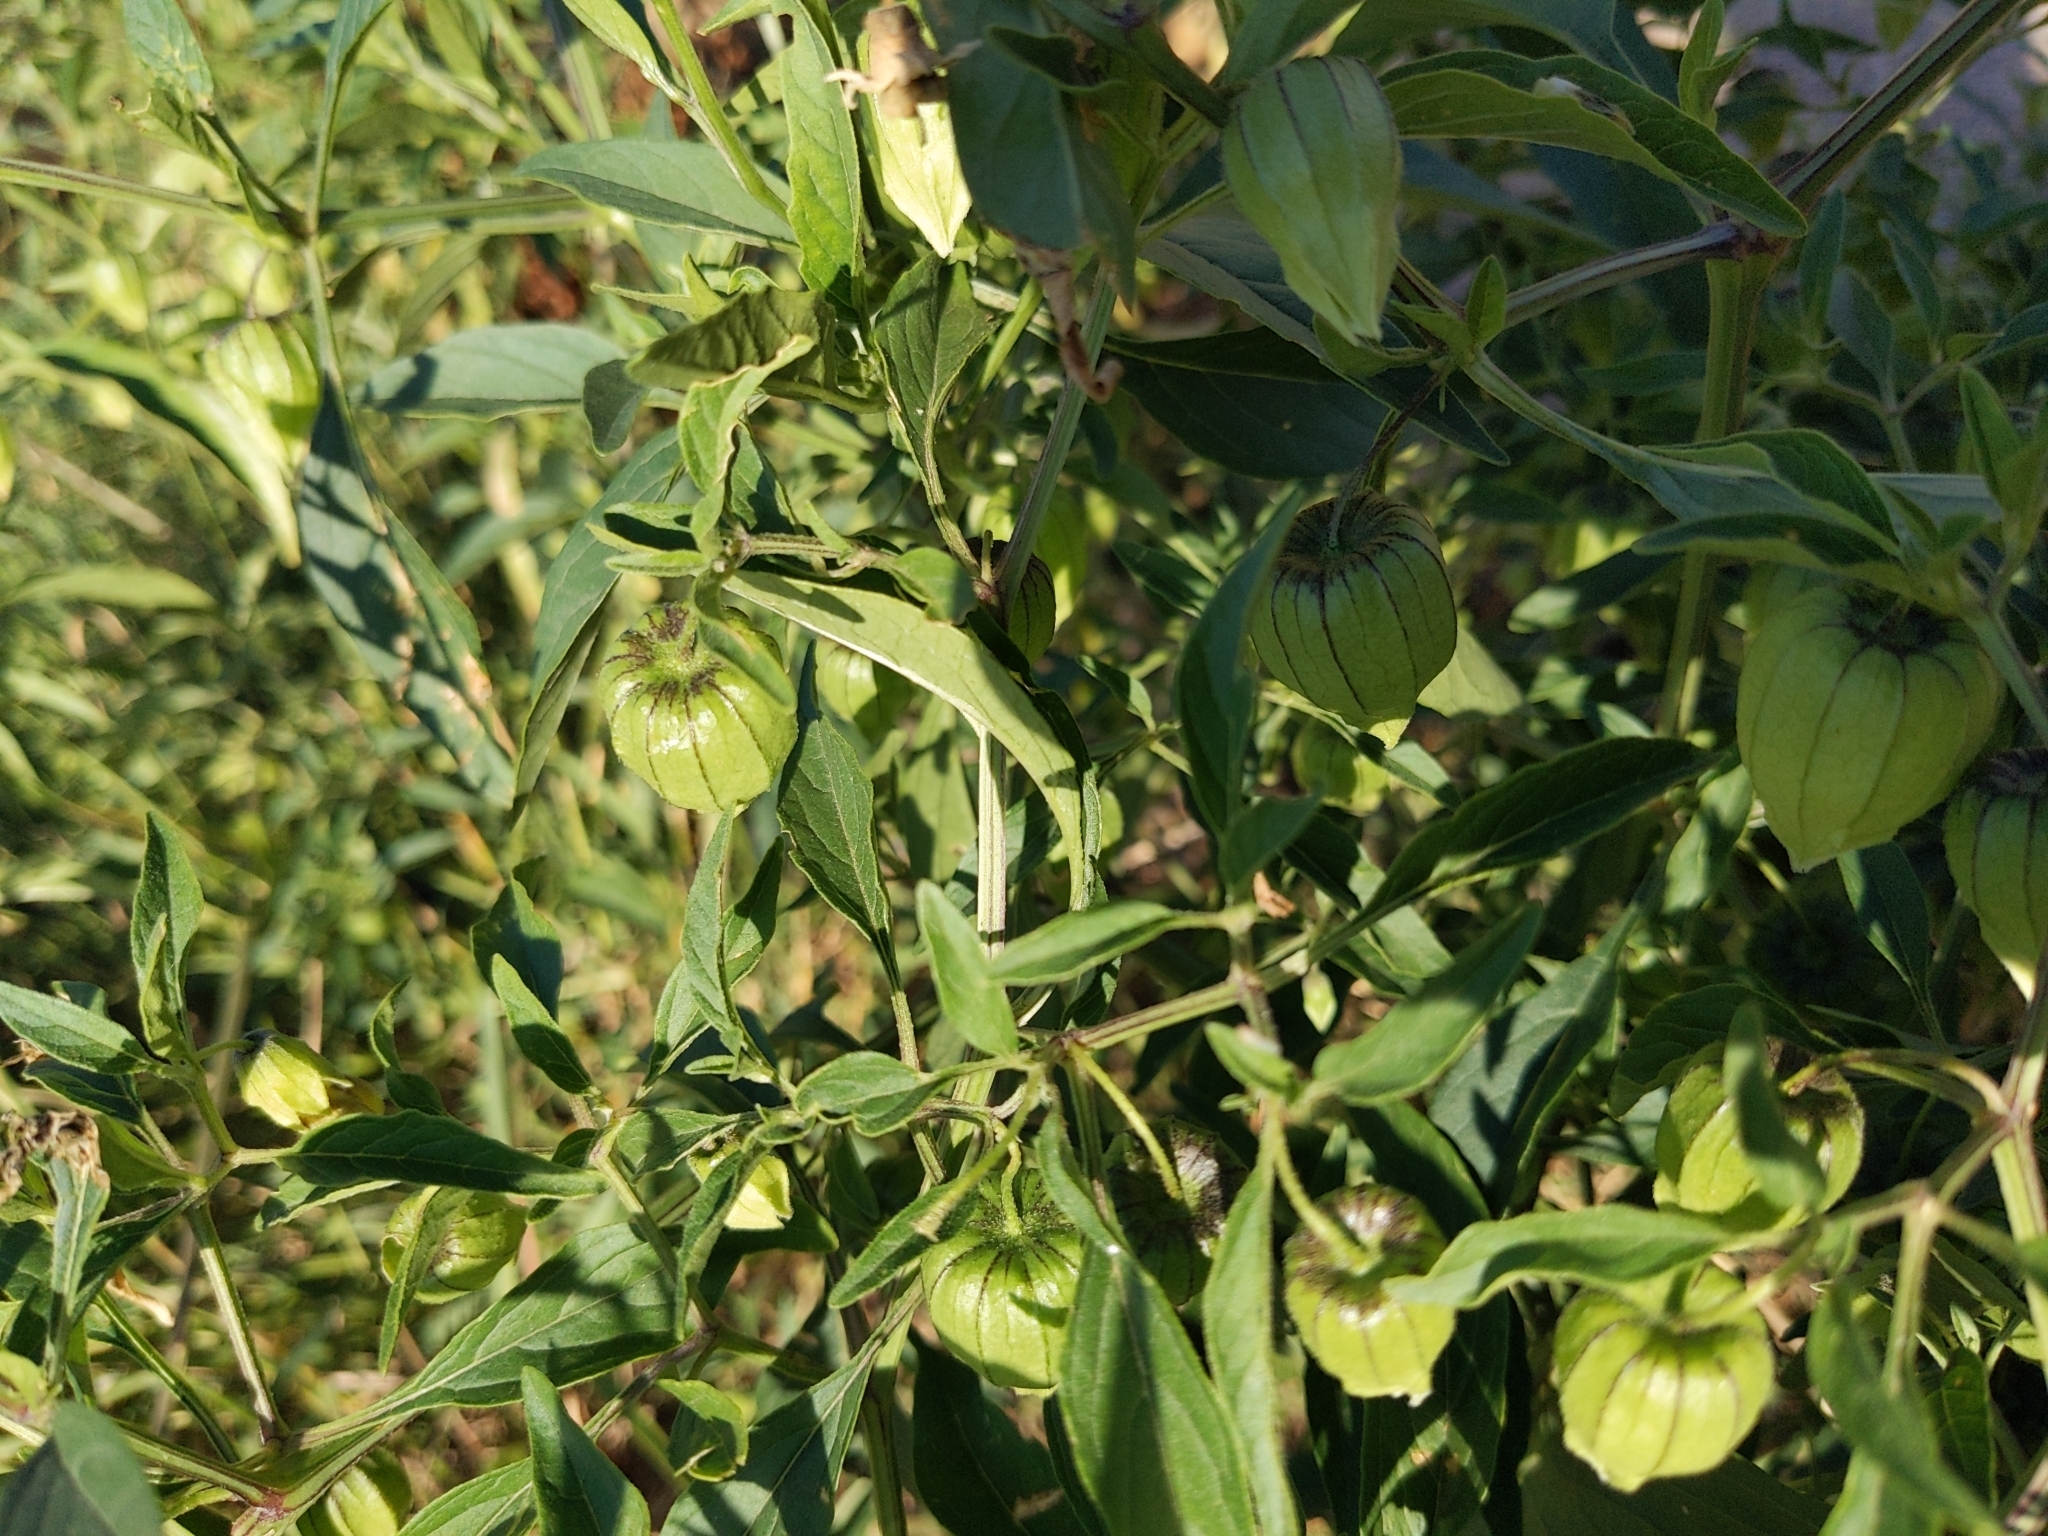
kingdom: Plantae
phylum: Tracheophyta
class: Magnoliopsida
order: Solanales
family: Solanaceae
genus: Physalis
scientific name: Physalis longifolia
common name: Common ground-cherry
